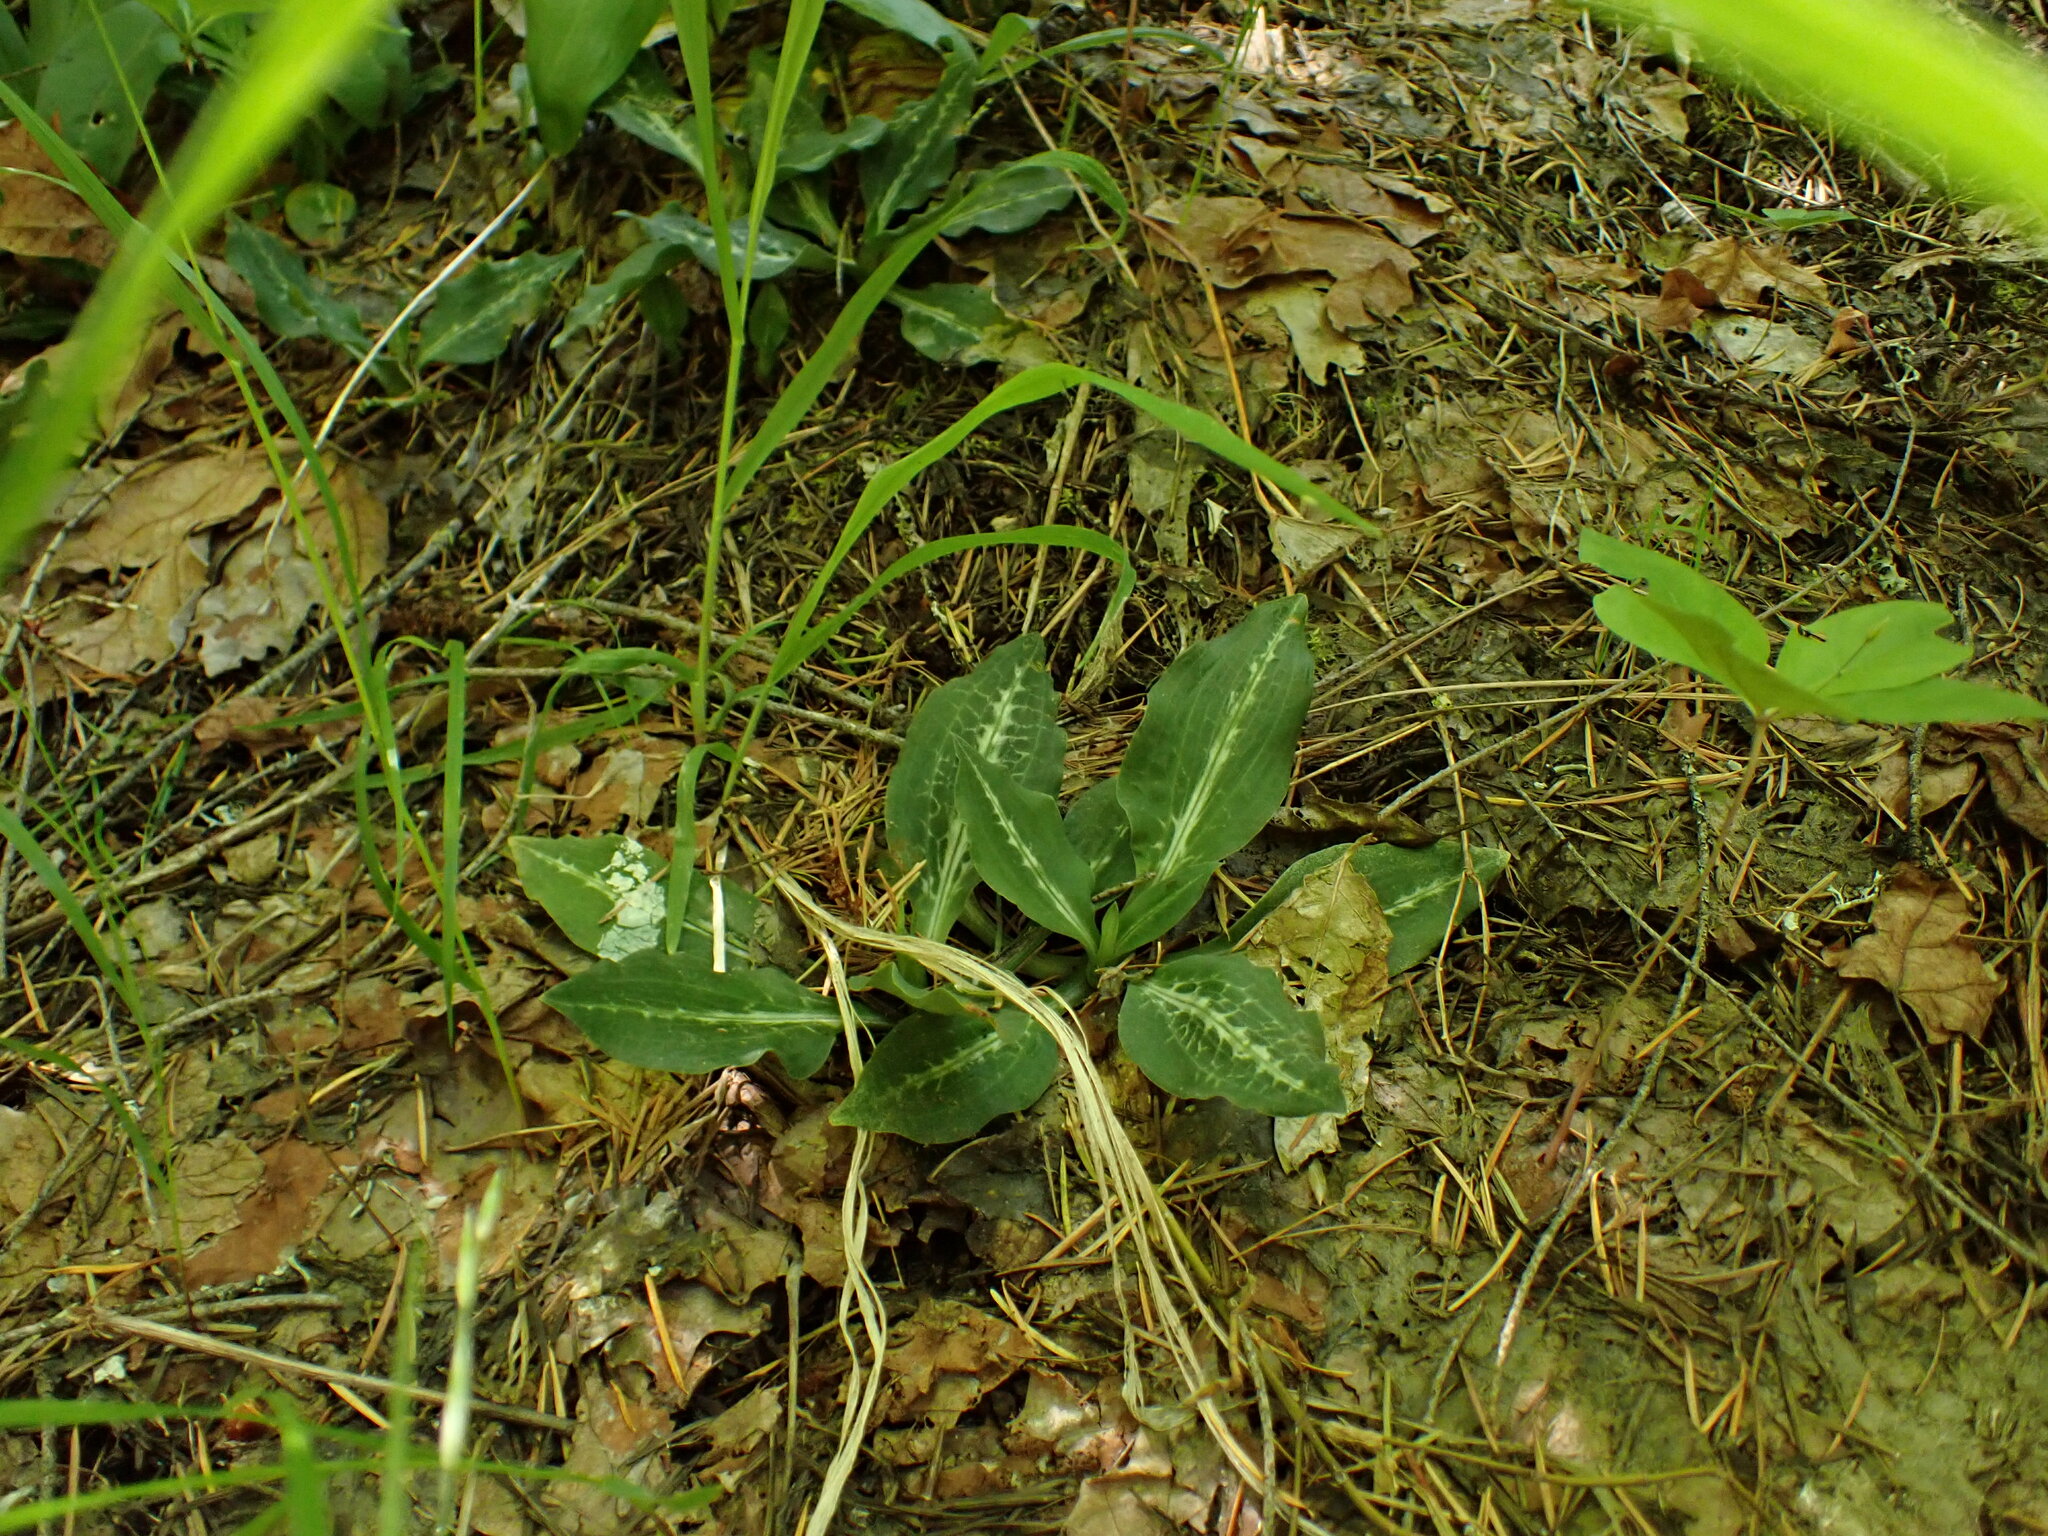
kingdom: Plantae
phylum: Tracheophyta
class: Liliopsida
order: Asparagales
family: Orchidaceae
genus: Goodyera
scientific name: Goodyera oblongifolia
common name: Giant rattlesnake-plantain
